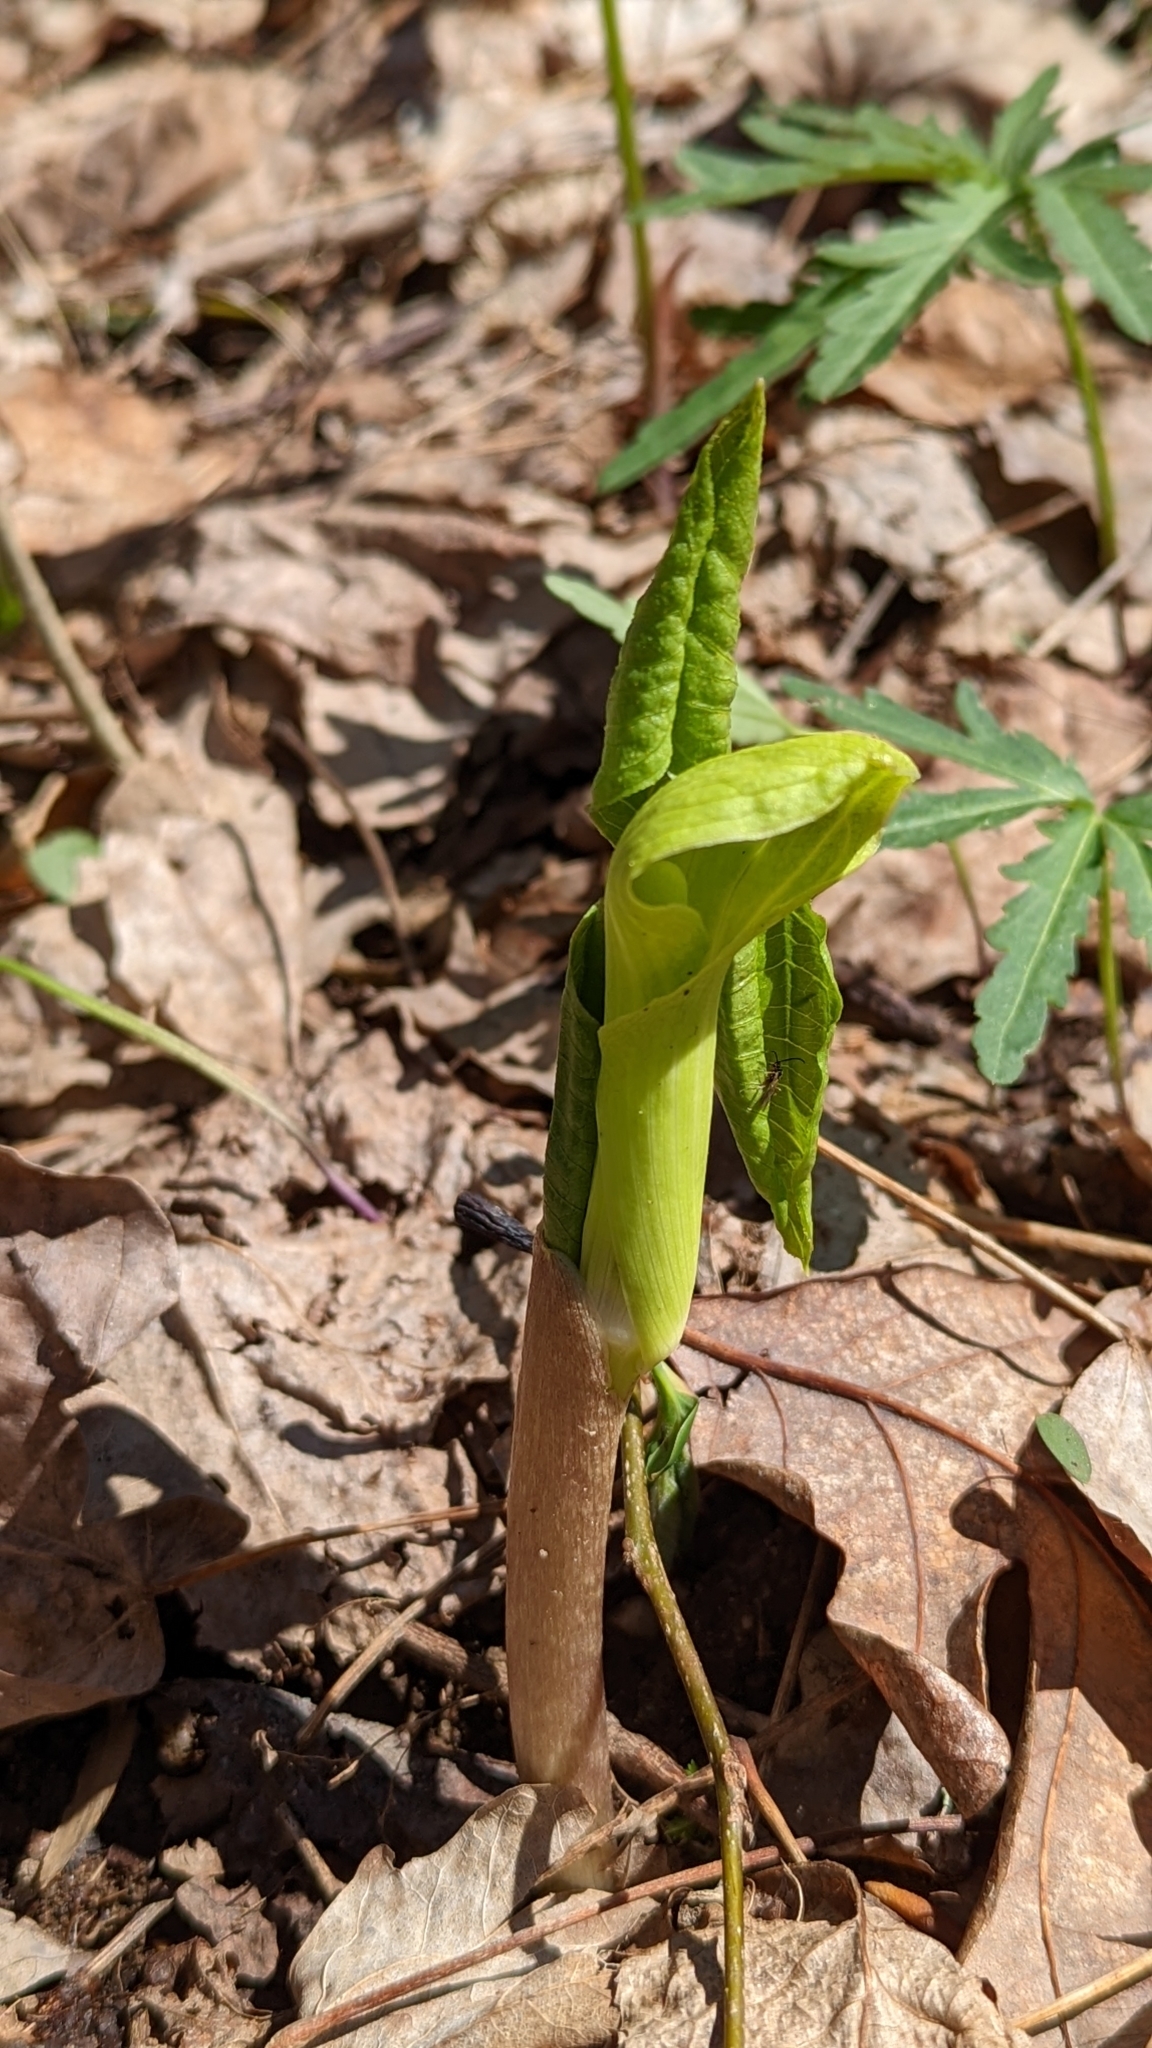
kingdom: Plantae
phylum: Tracheophyta
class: Liliopsida
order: Alismatales
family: Araceae
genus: Arisaema
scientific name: Arisaema triphyllum
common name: Jack-in-the-pulpit
